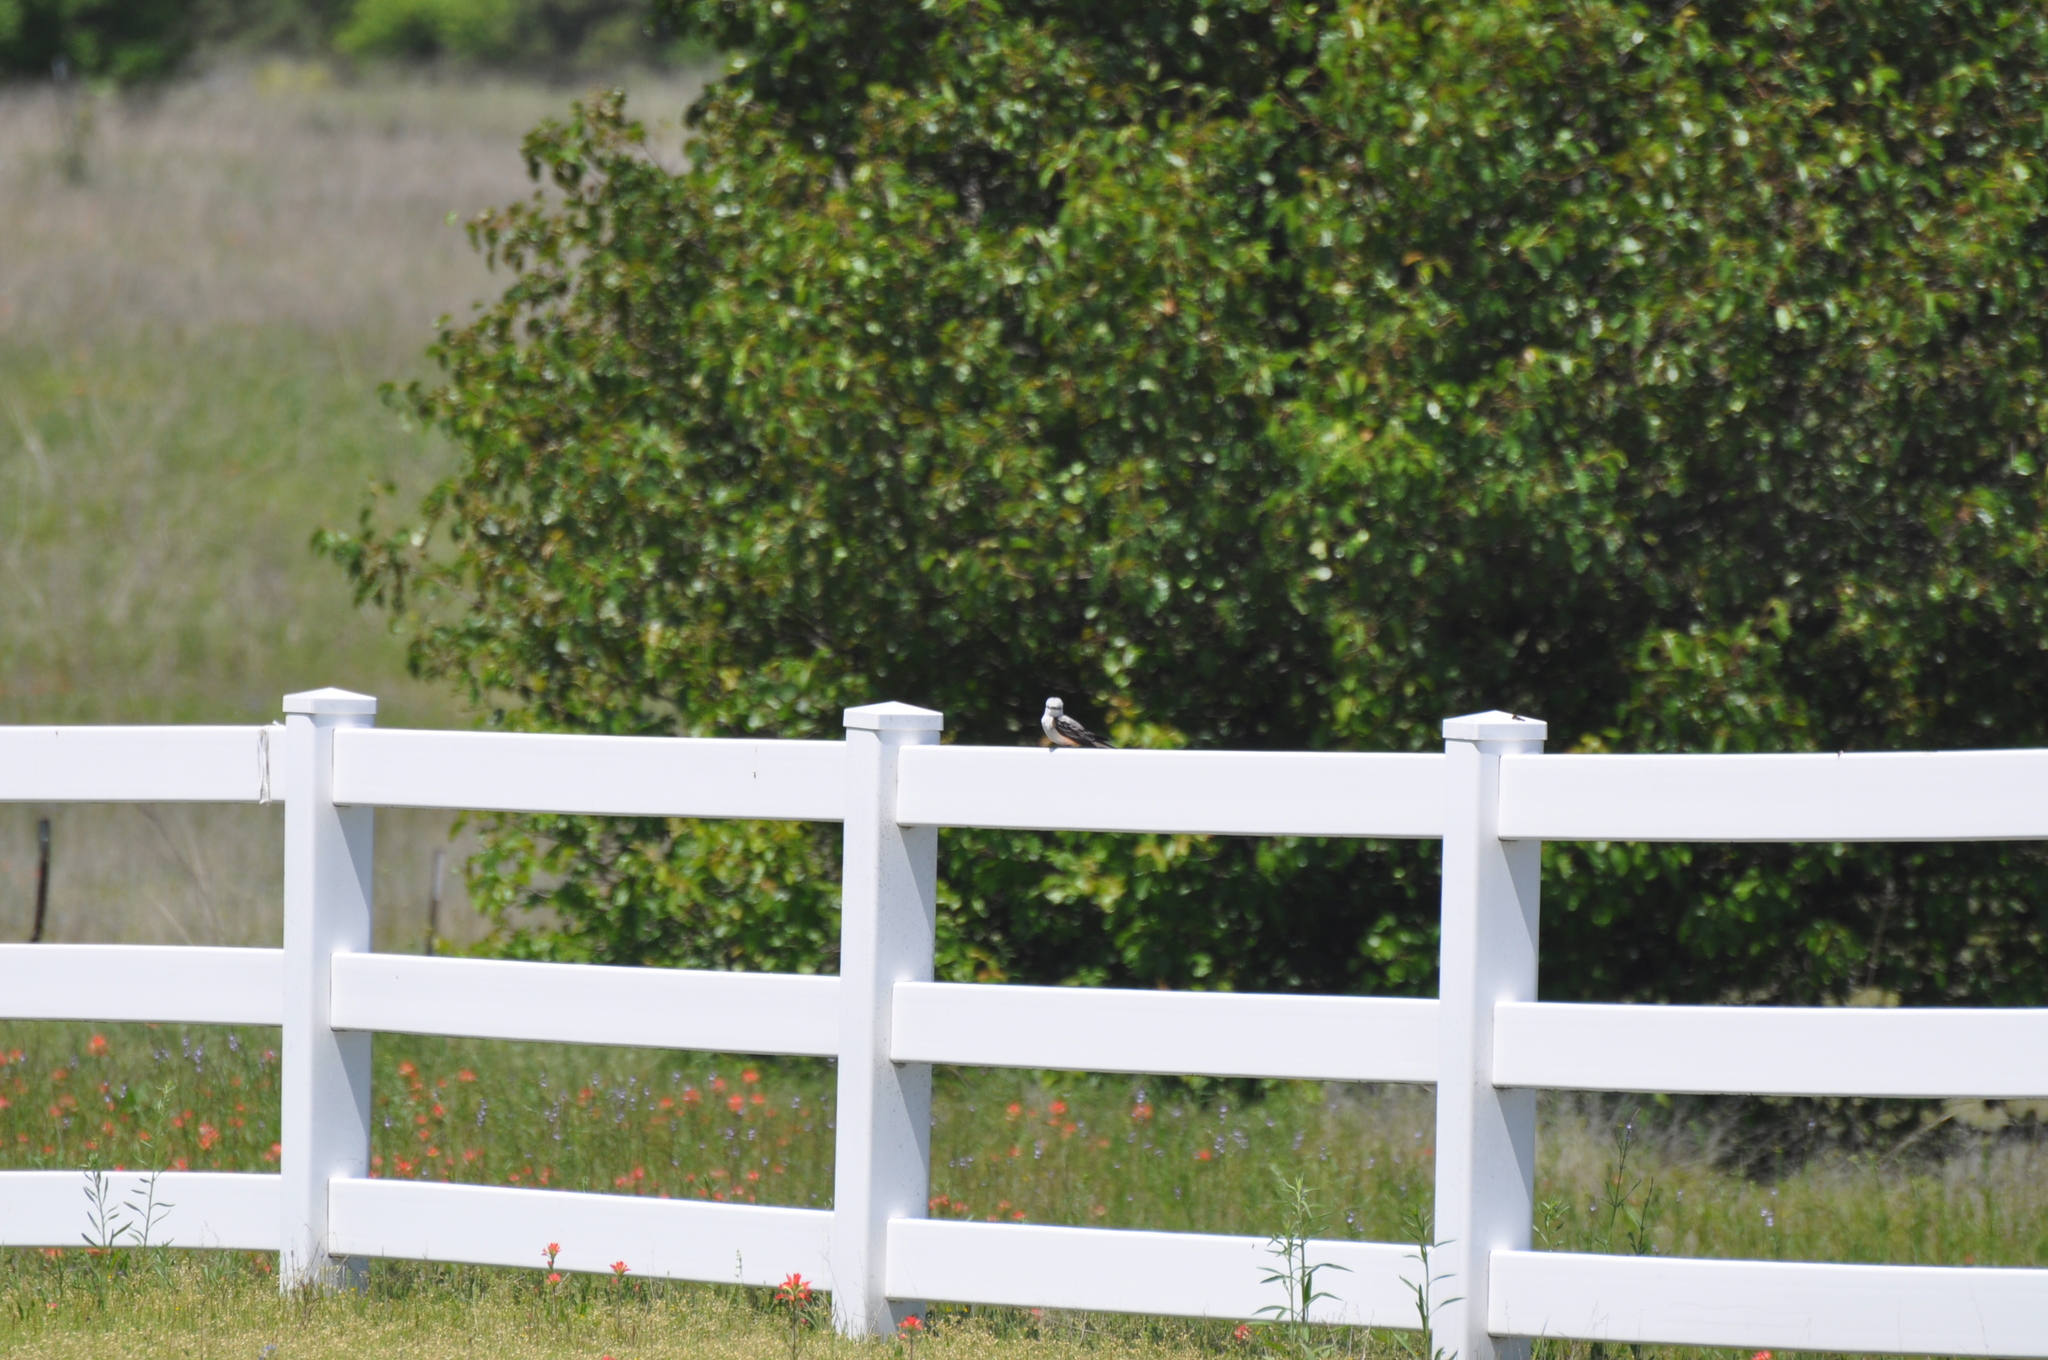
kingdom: Animalia
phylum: Chordata
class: Aves
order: Passeriformes
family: Tyrannidae
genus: Tyrannus
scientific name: Tyrannus forficatus
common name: Scissor-tailed flycatcher
